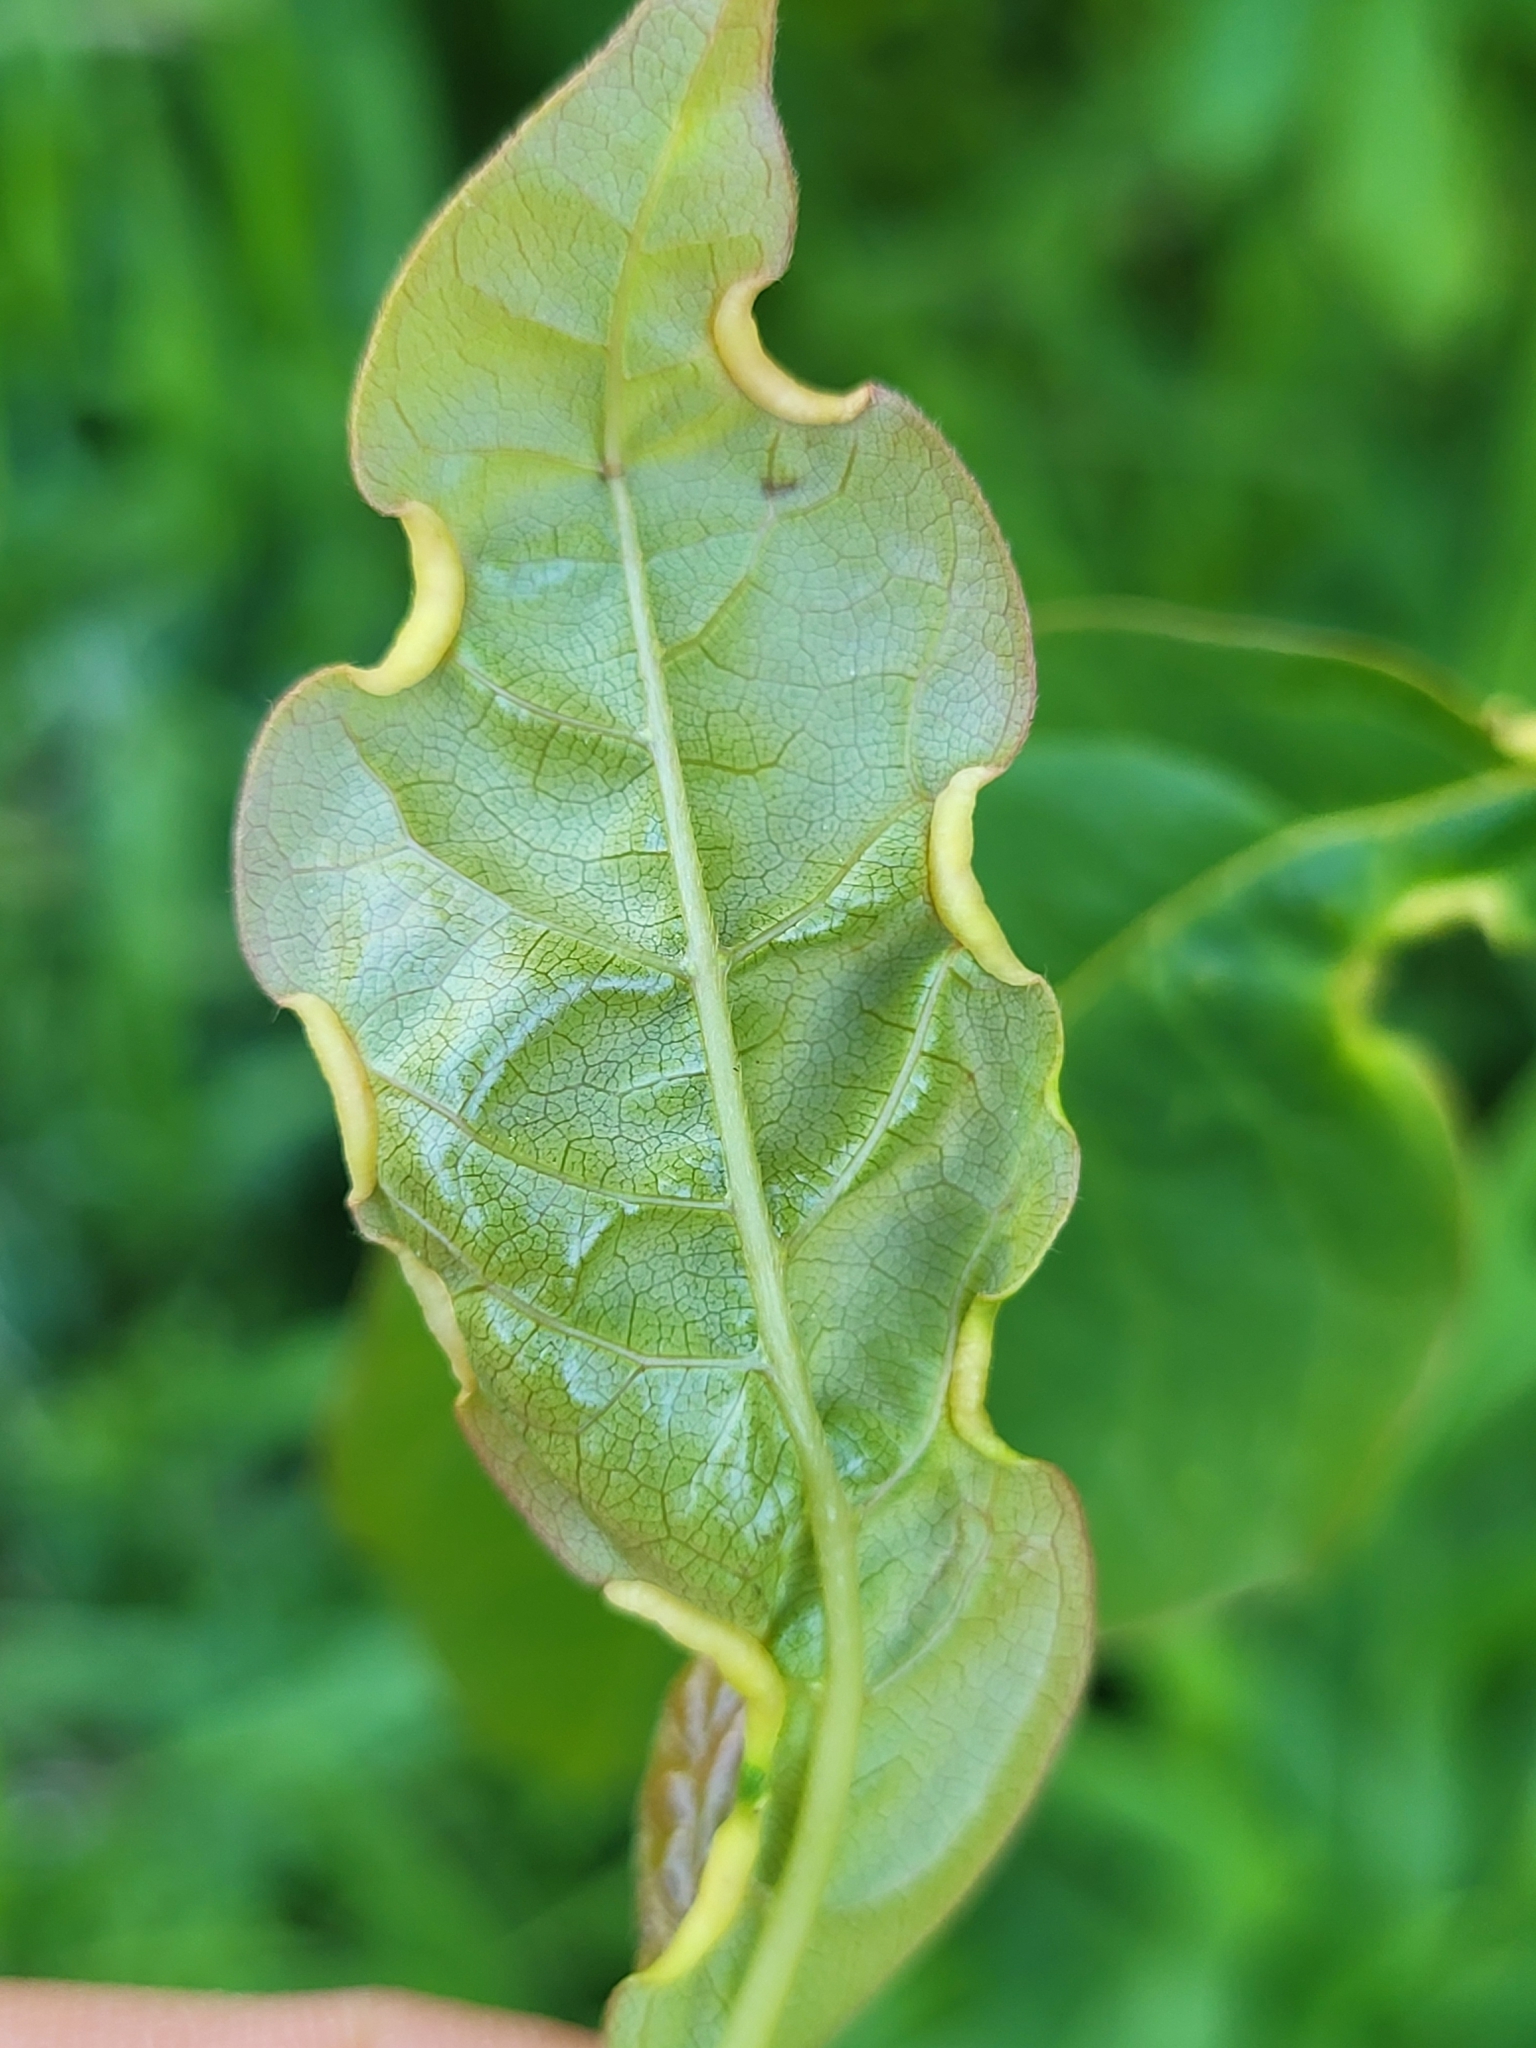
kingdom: Animalia
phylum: Arthropoda
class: Insecta
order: Hemiptera
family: Phylloxeridae
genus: Phylloxerina
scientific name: Phylloxerina nyssae
